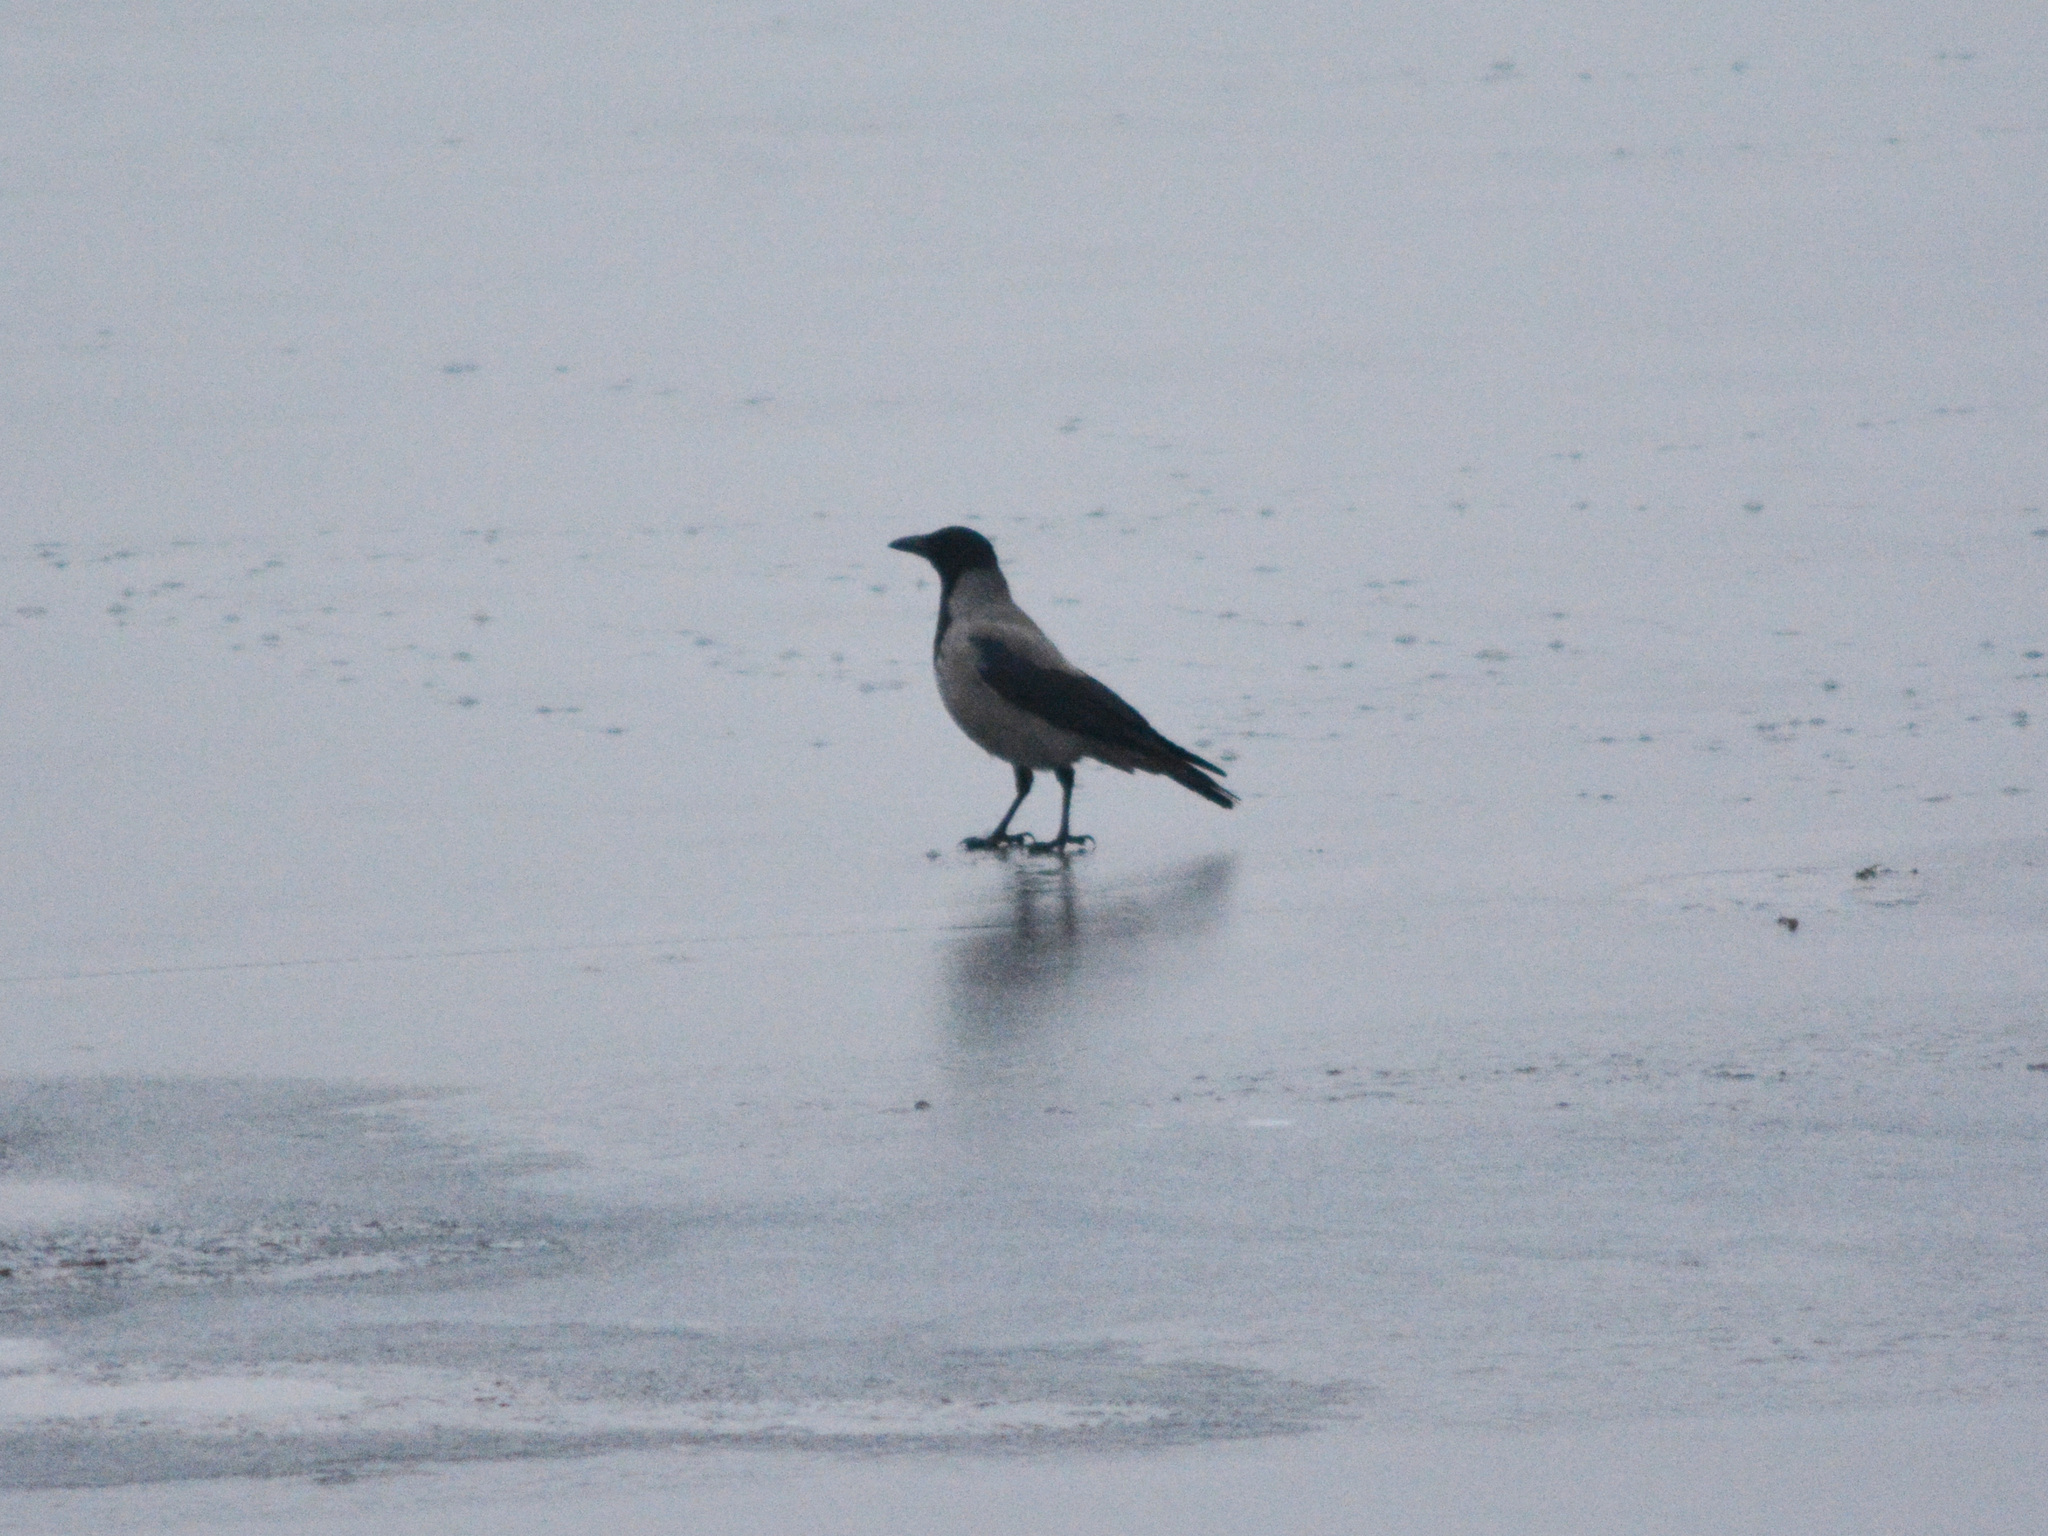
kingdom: Animalia
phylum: Chordata
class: Aves
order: Passeriformes
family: Corvidae
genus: Corvus
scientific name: Corvus cornix
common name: Hooded crow
